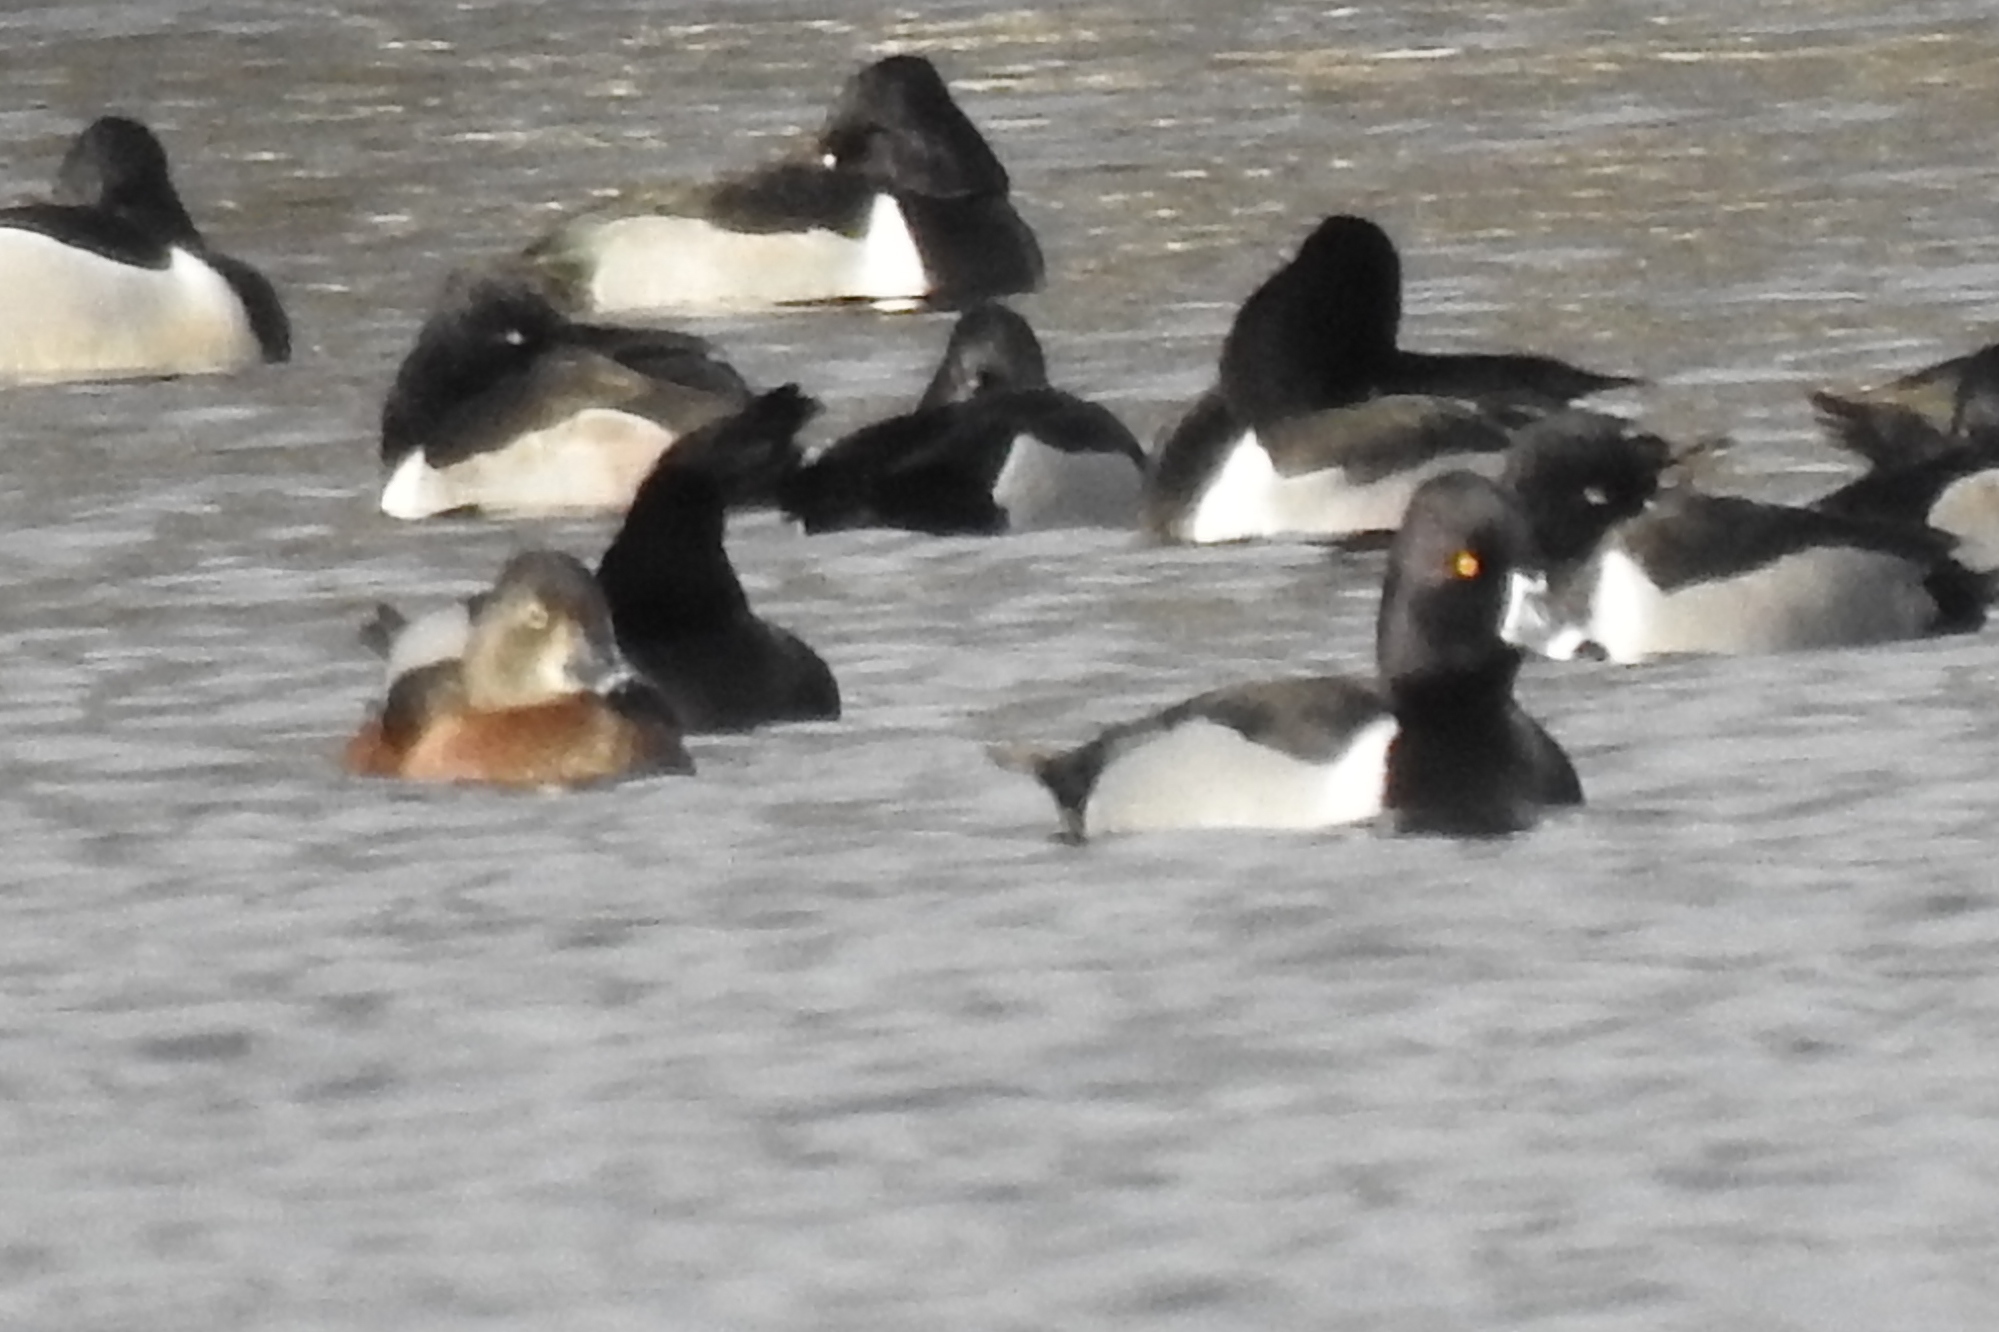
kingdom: Animalia
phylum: Chordata
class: Aves
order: Anseriformes
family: Anatidae
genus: Aythya
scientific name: Aythya collaris
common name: Ring-necked duck
